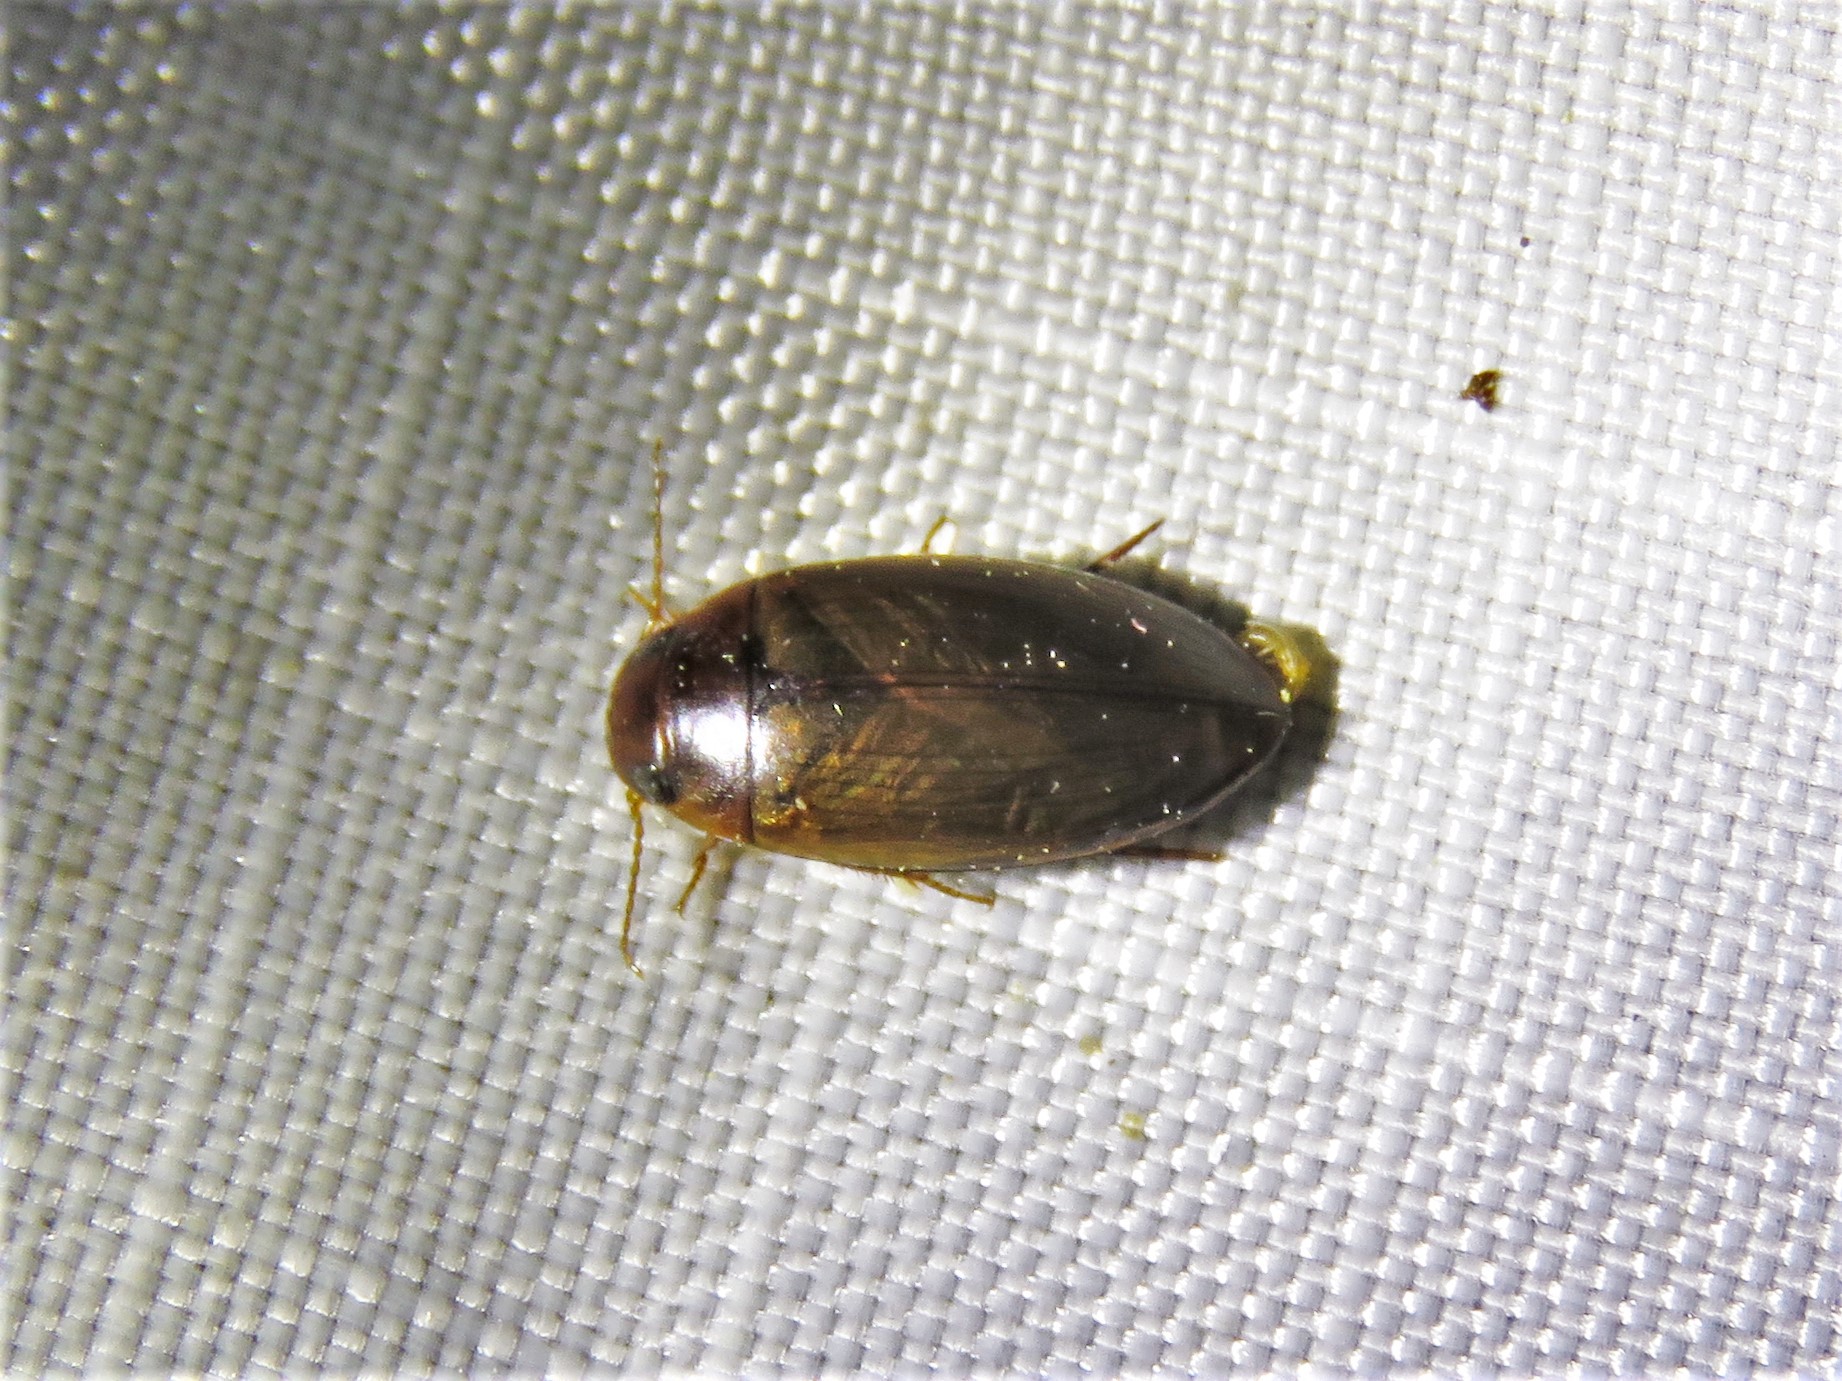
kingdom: Animalia
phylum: Arthropoda
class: Insecta
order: Coleoptera
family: Dytiscidae
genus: Copelatus
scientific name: Copelatus chevrolati
